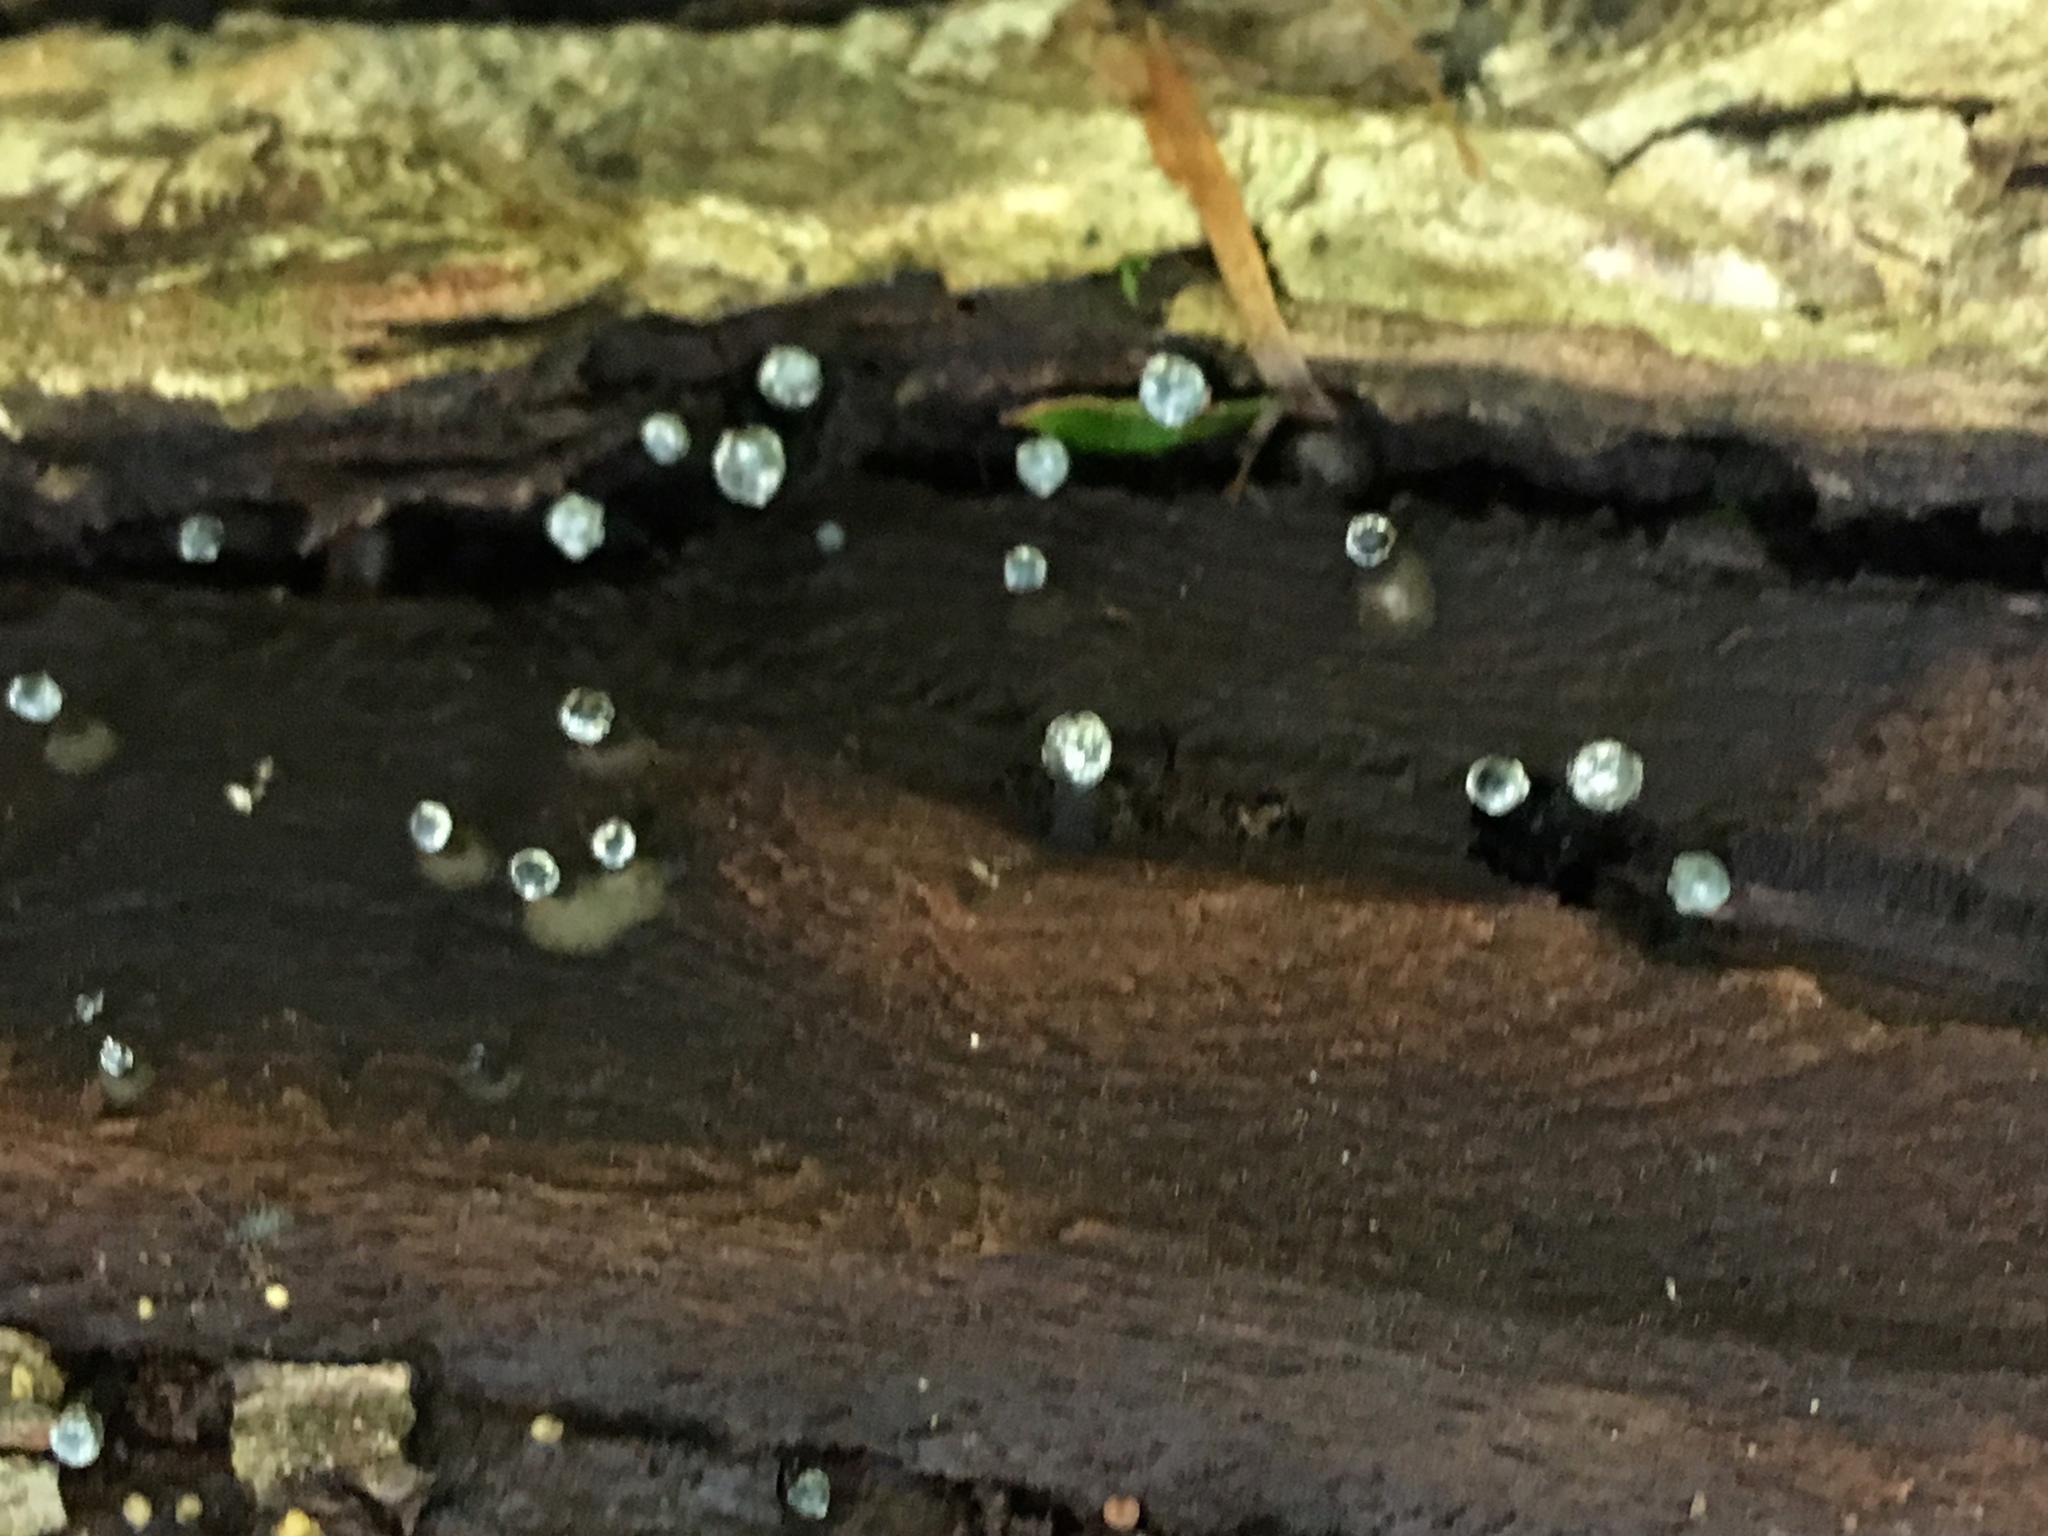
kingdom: Fungi
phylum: Ascomycota
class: Leotiomycetes
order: Helotiales
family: Bulgariaceae
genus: Holwaya
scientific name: Holwaya mucida
